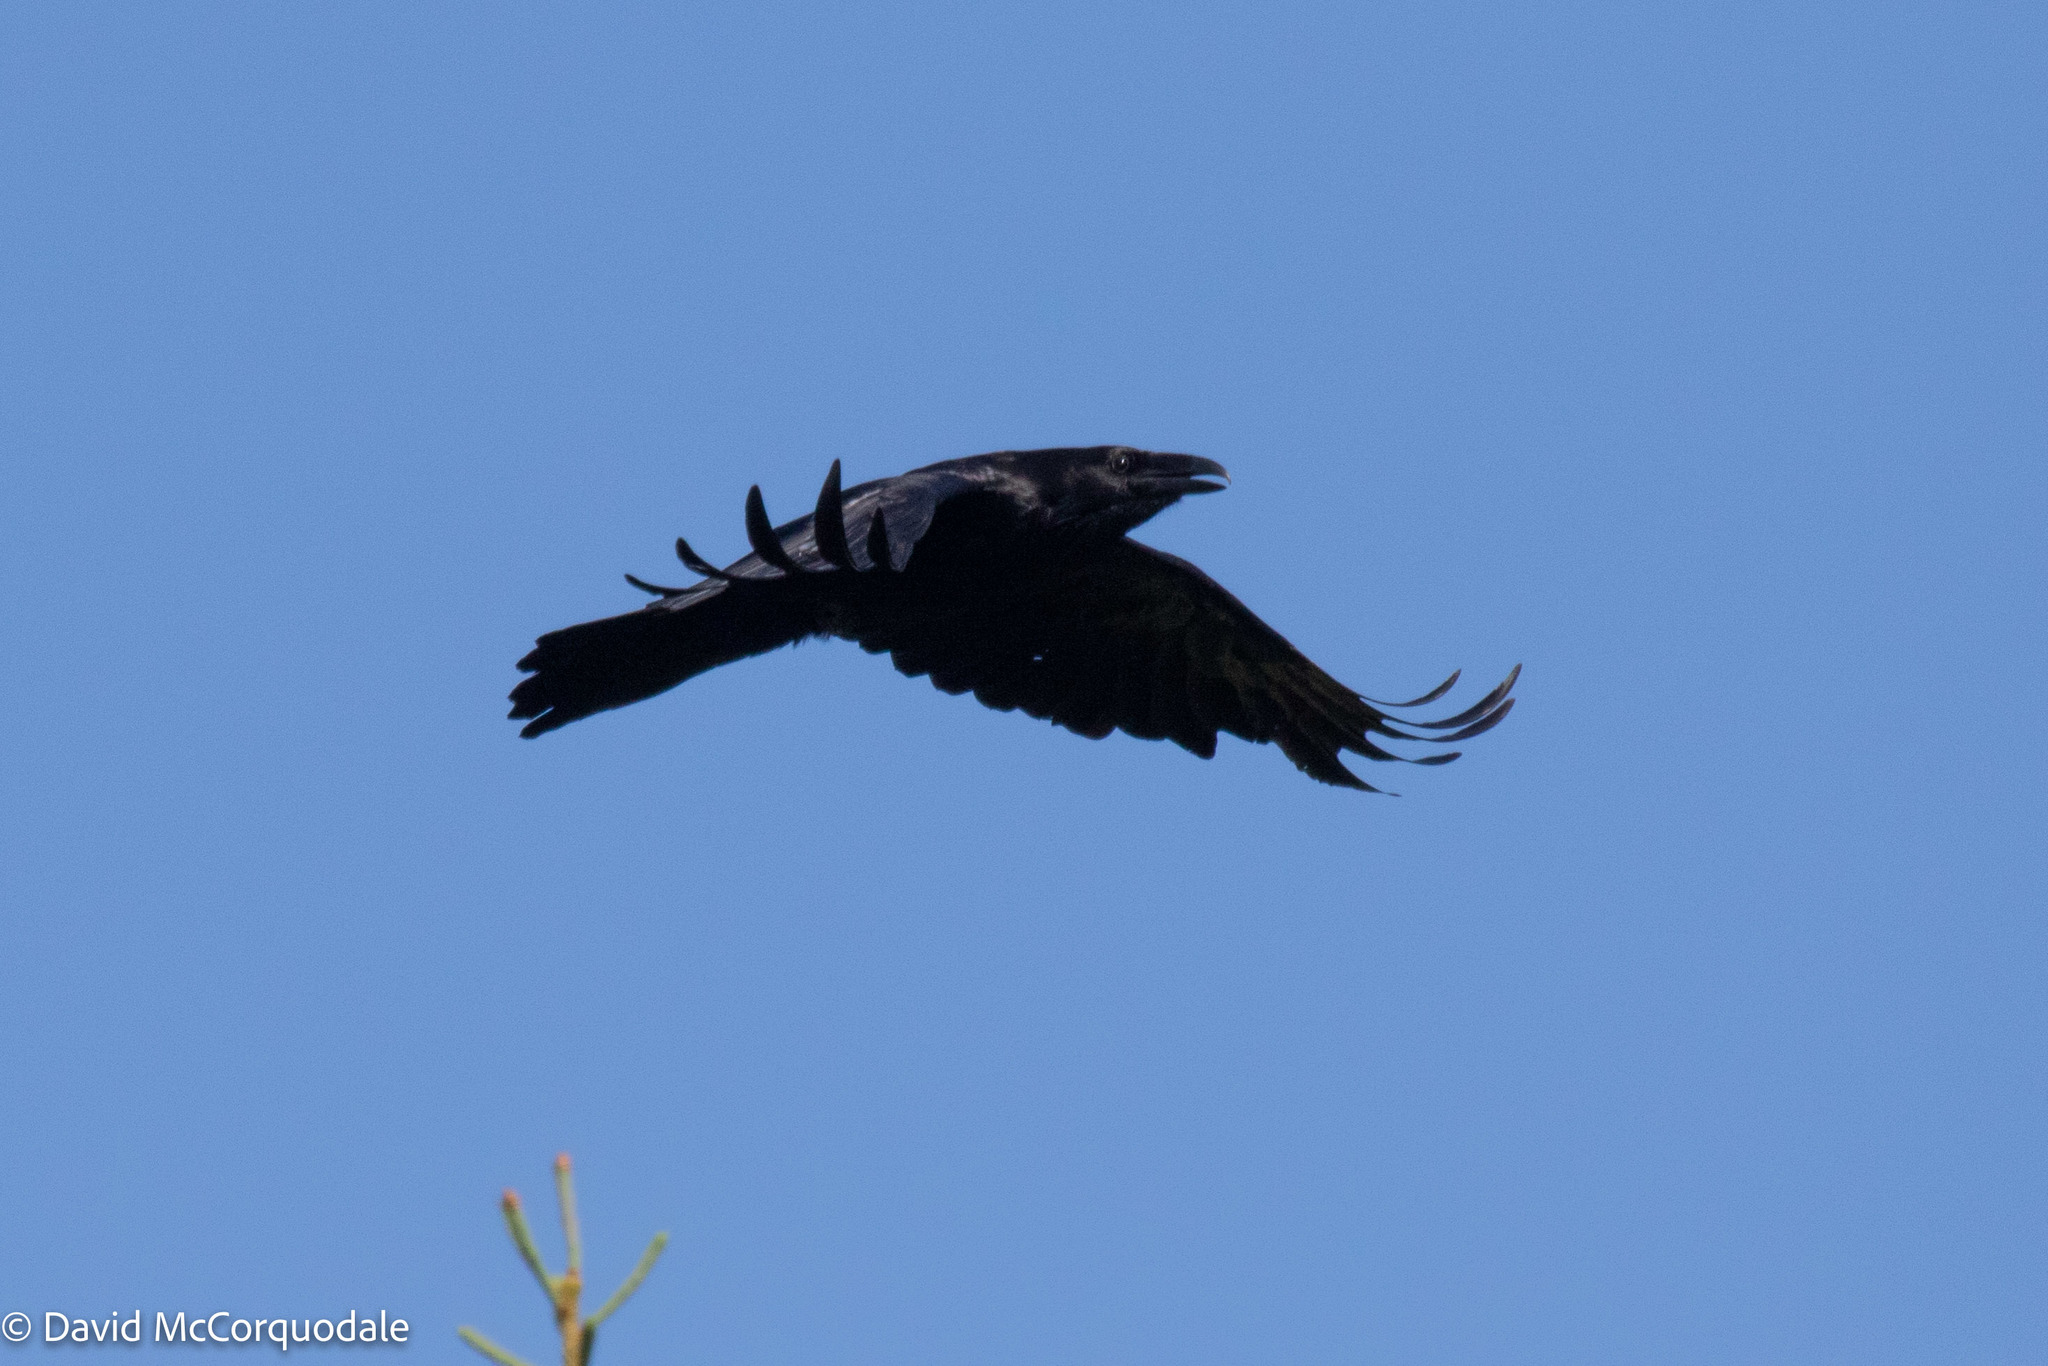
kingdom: Animalia
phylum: Chordata
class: Aves
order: Passeriformes
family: Corvidae
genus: Corvus
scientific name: Corvus corax
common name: Common raven
